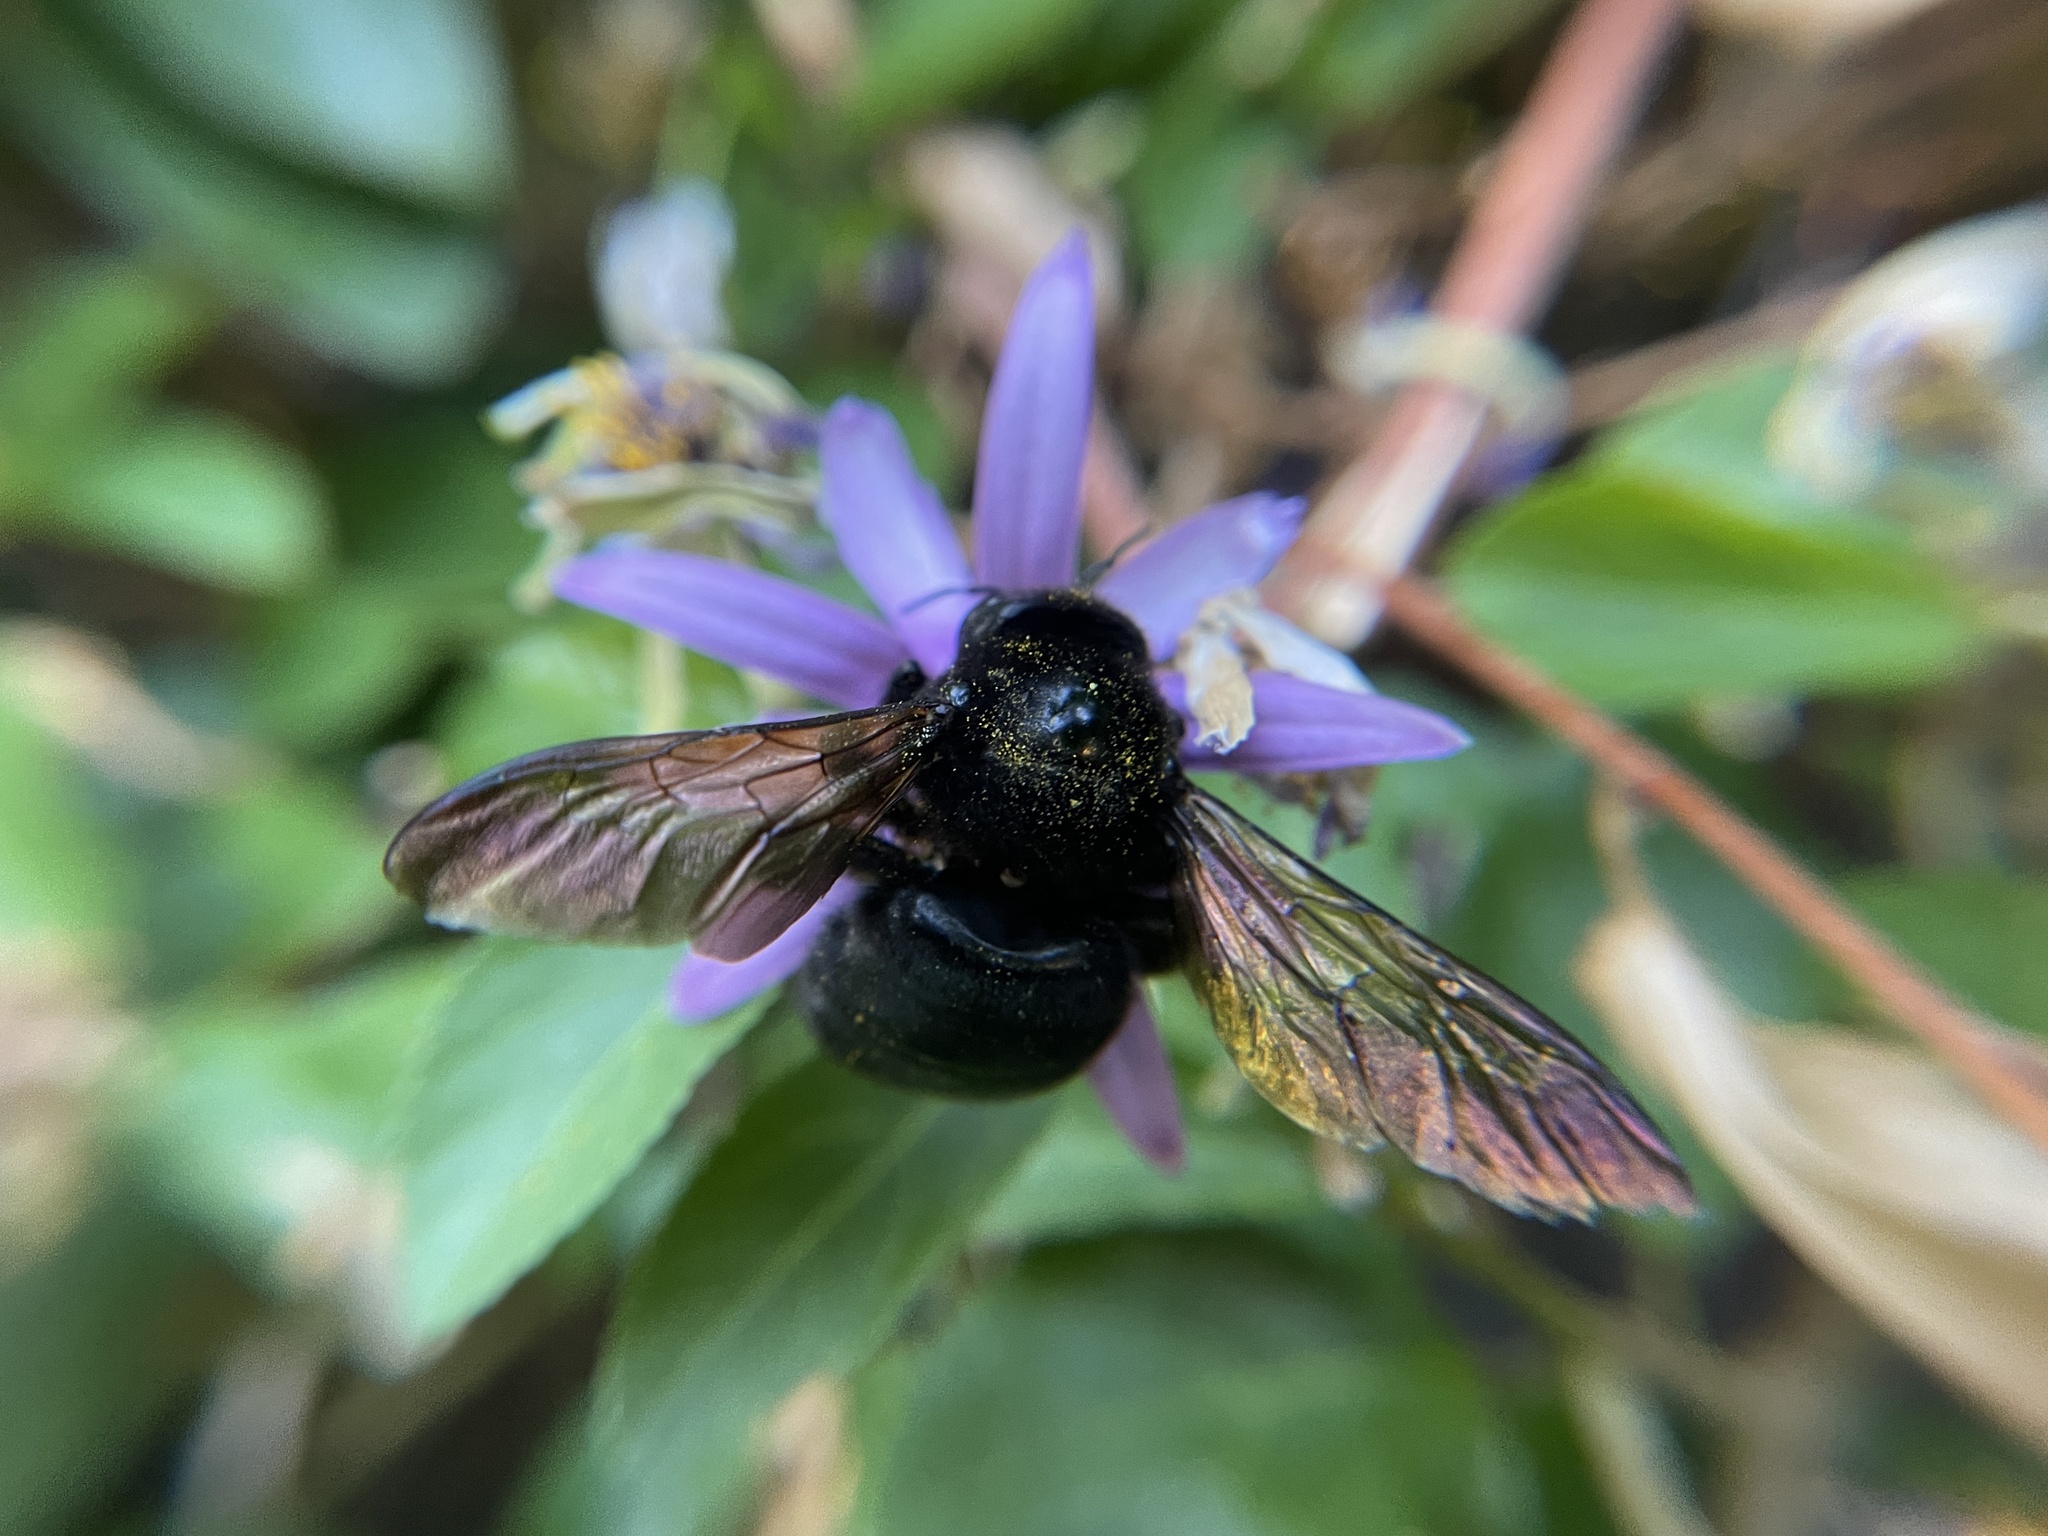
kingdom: Animalia
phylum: Arthropoda
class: Insecta
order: Hymenoptera
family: Apidae
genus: Xylocopa
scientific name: Xylocopa sonorina
